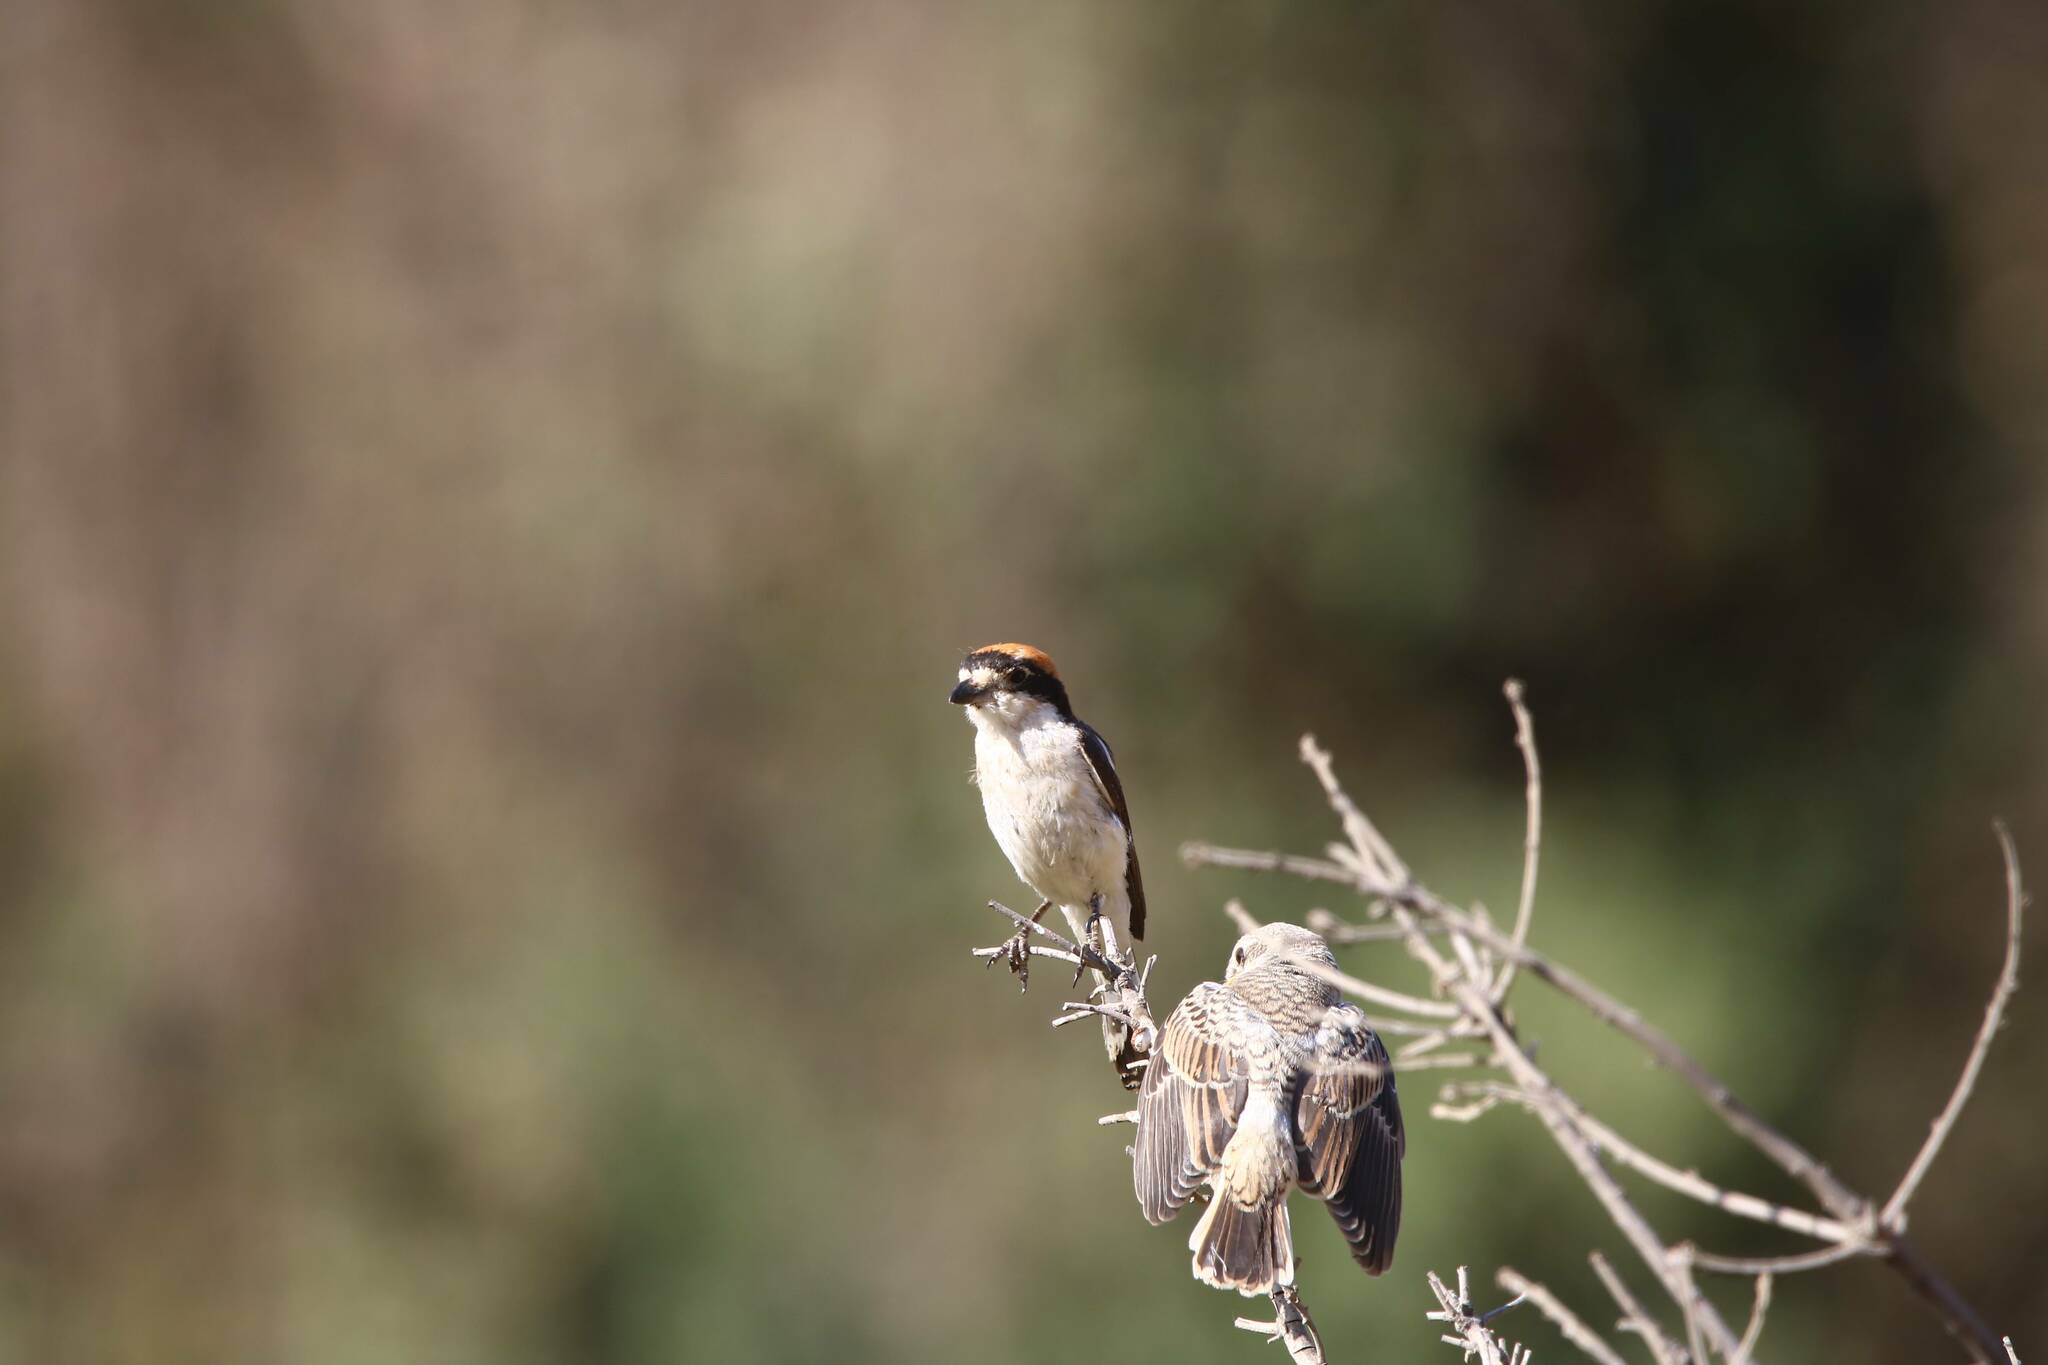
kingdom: Animalia
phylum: Chordata
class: Aves
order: Passeriformes
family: Laniidae
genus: Lanius
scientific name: Lanius senator
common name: Woodchat shrike
